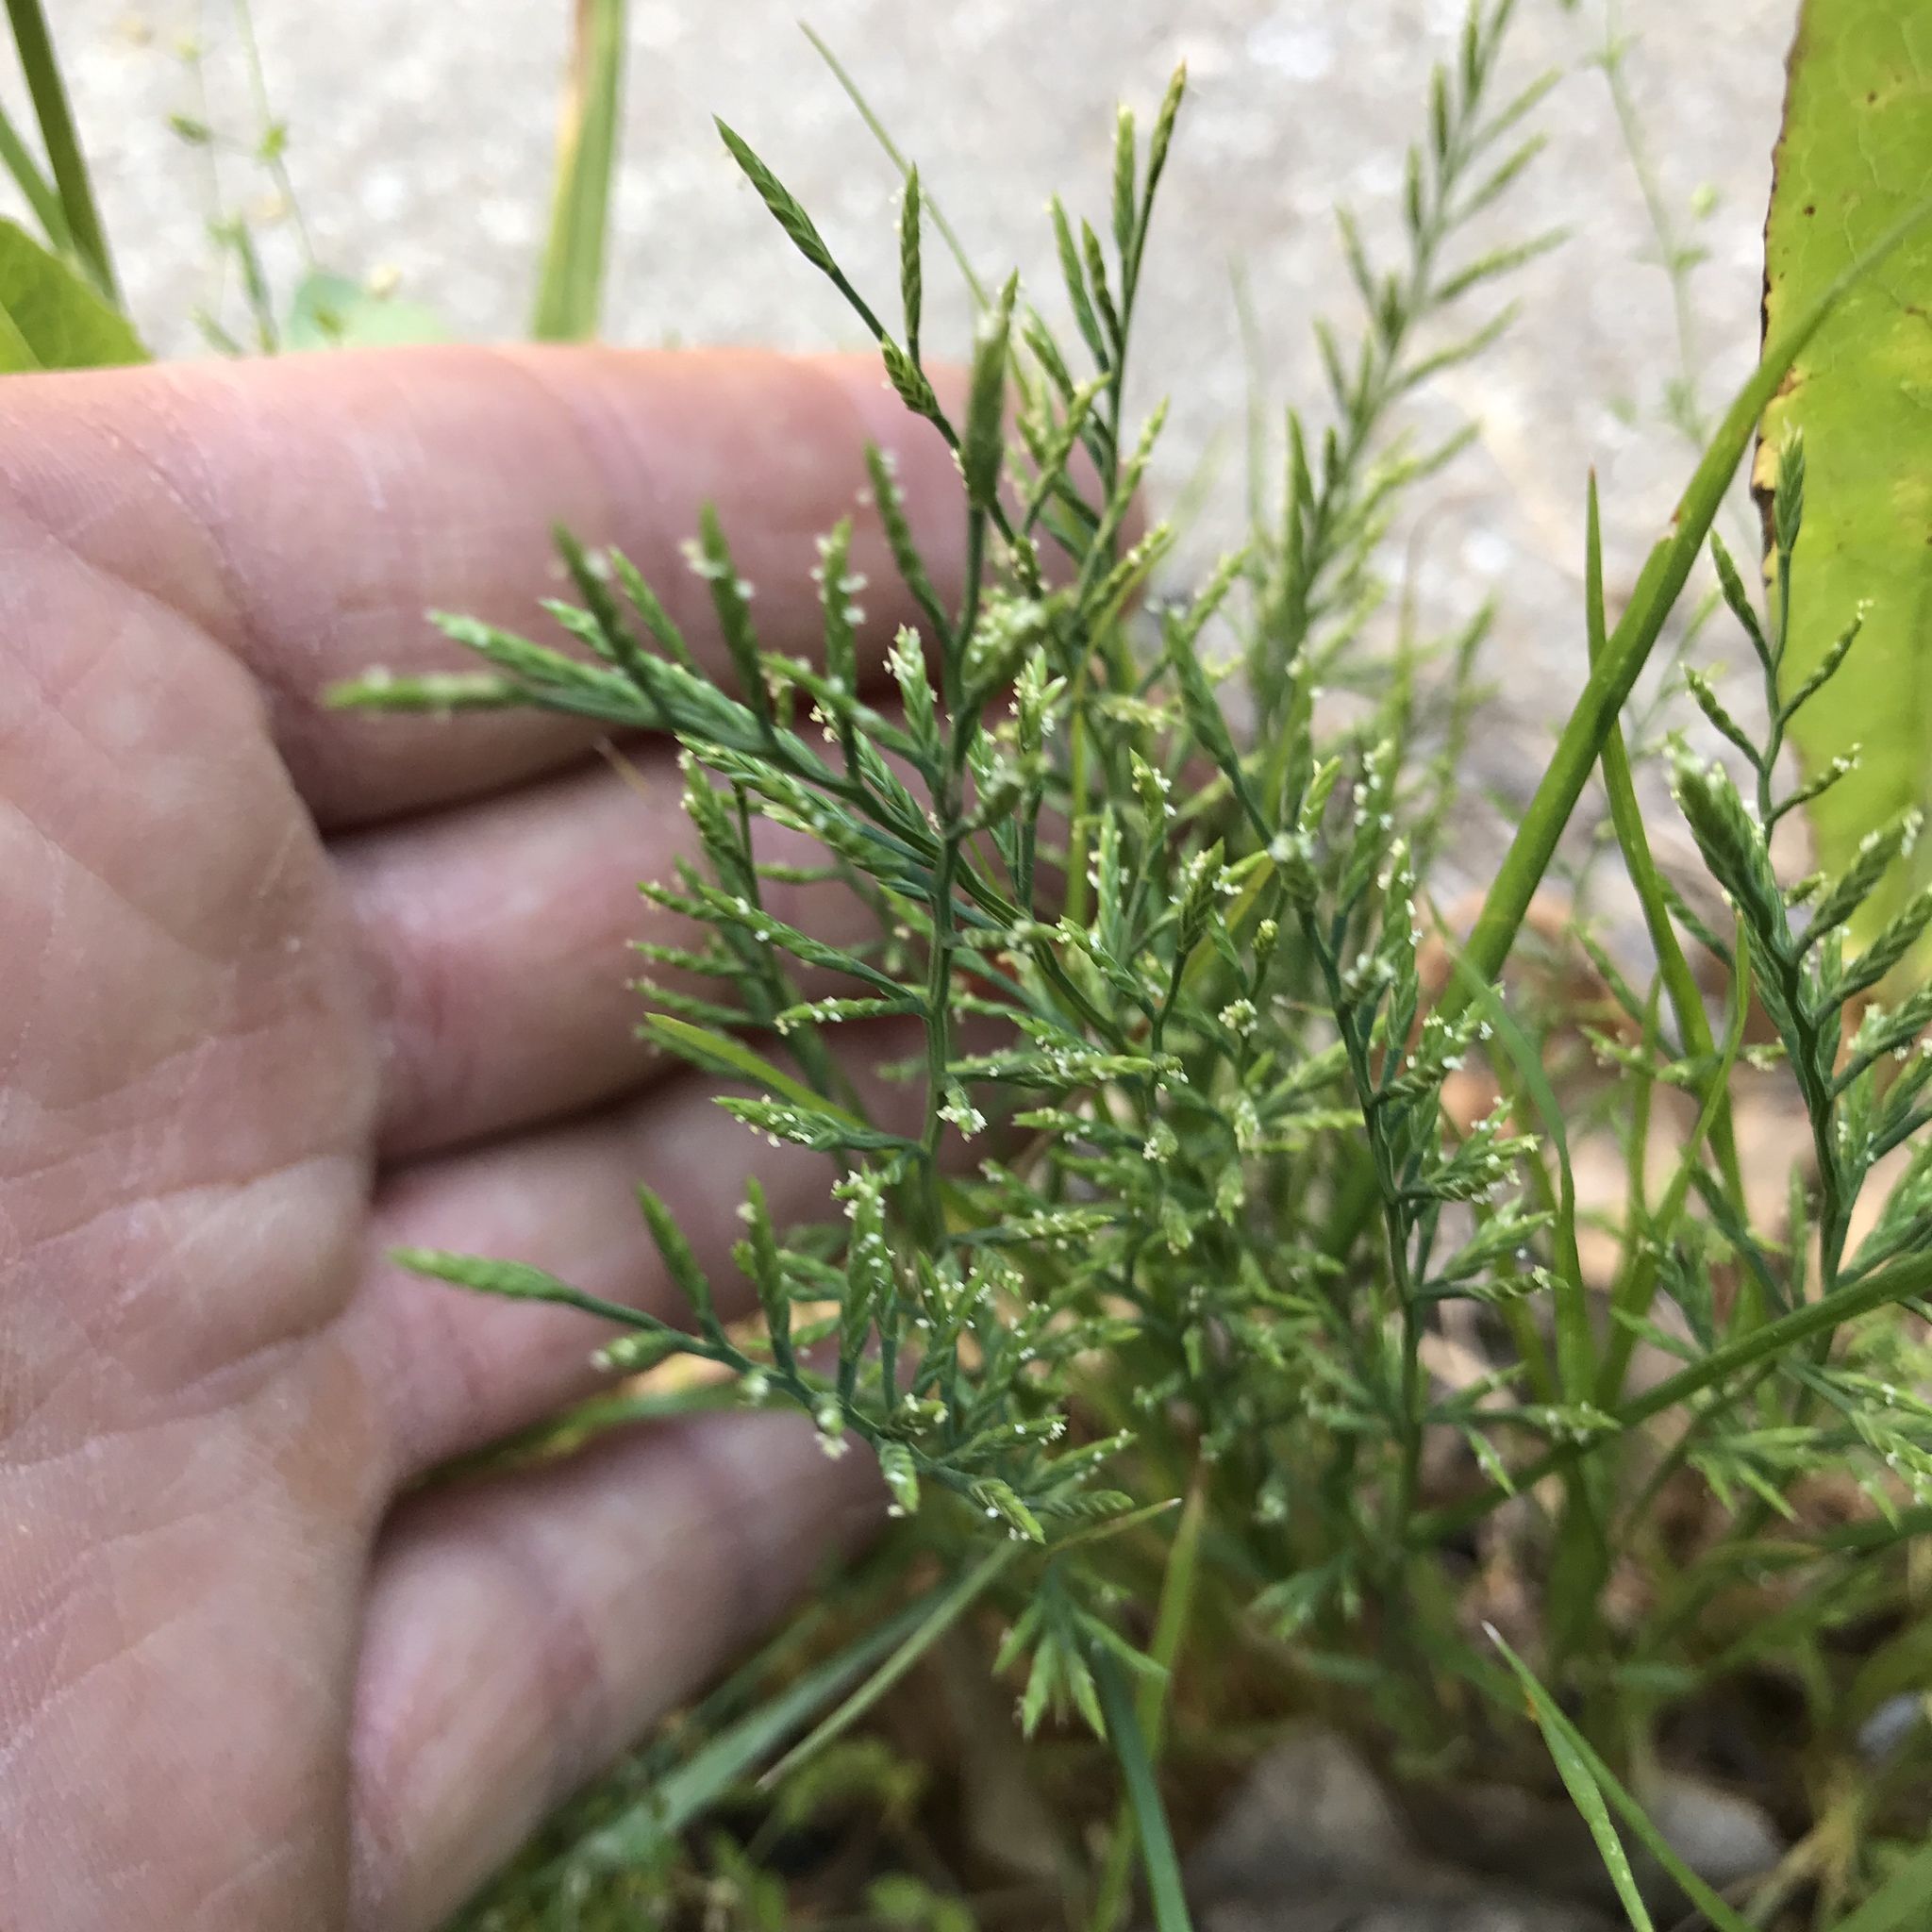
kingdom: Plantae
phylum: Tracheophyta
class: Liliopsida
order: Poales
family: Poaceae
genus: Catapodium
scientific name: Catapodium rigidum
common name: Fern-grass
